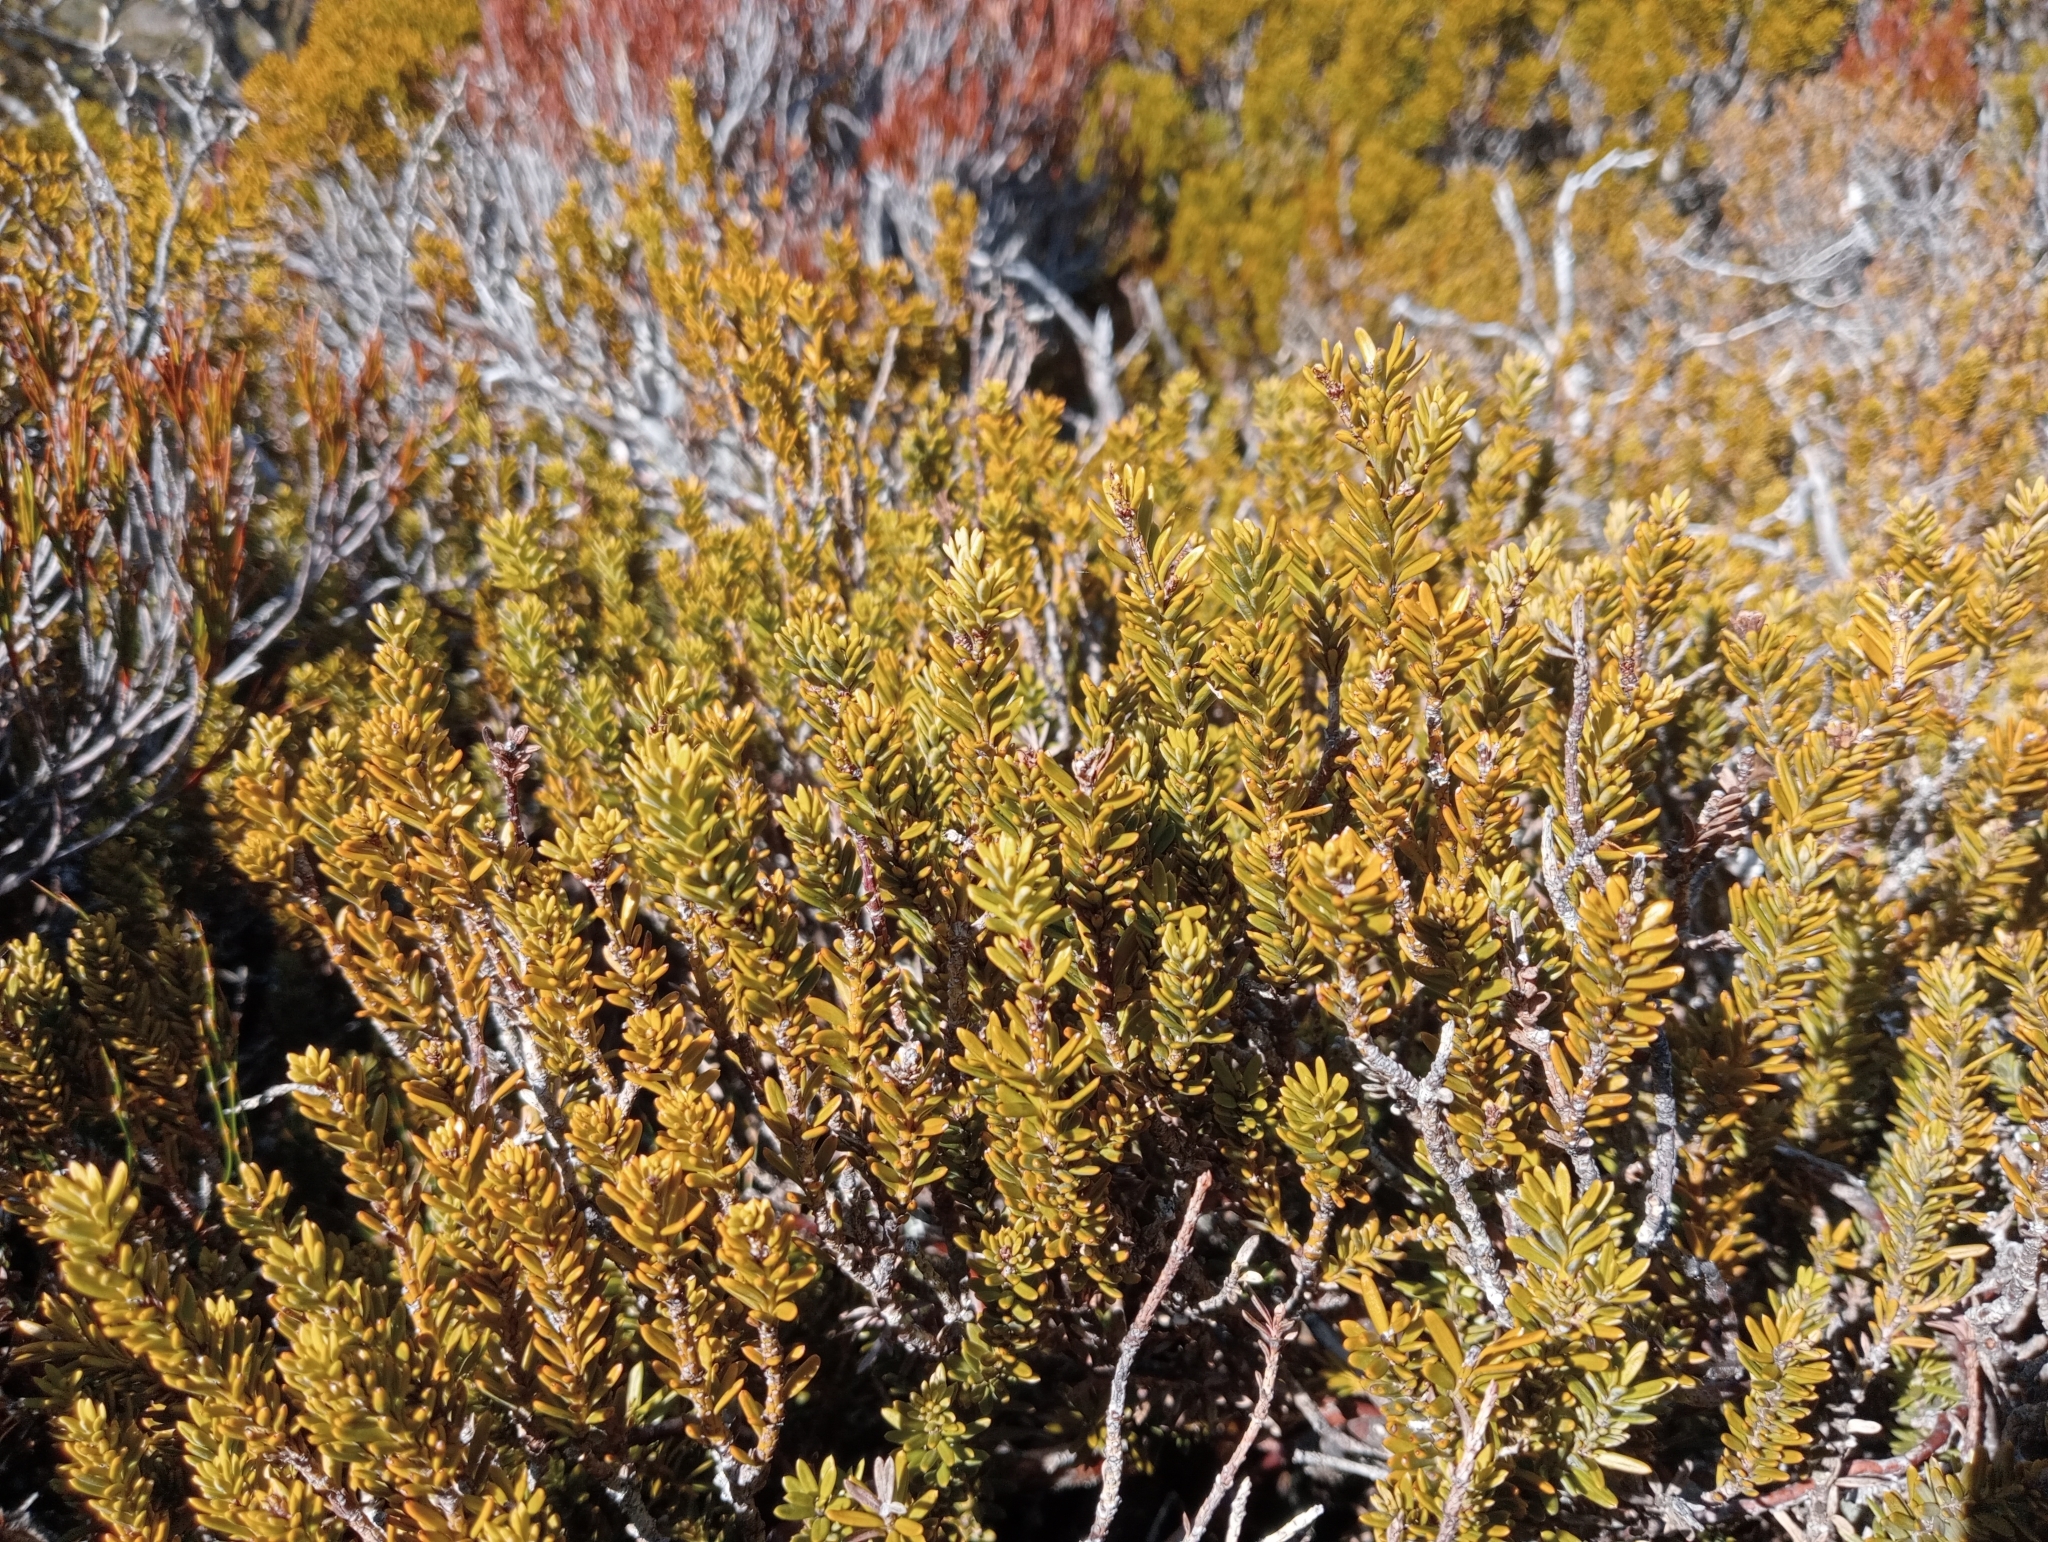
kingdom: Plantae
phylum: Tracheophyta
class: Pinopsida
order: Pinales
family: Podocarpaceae
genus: Podocarpus
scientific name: Podocarpus nivalis
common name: Alpine totara
